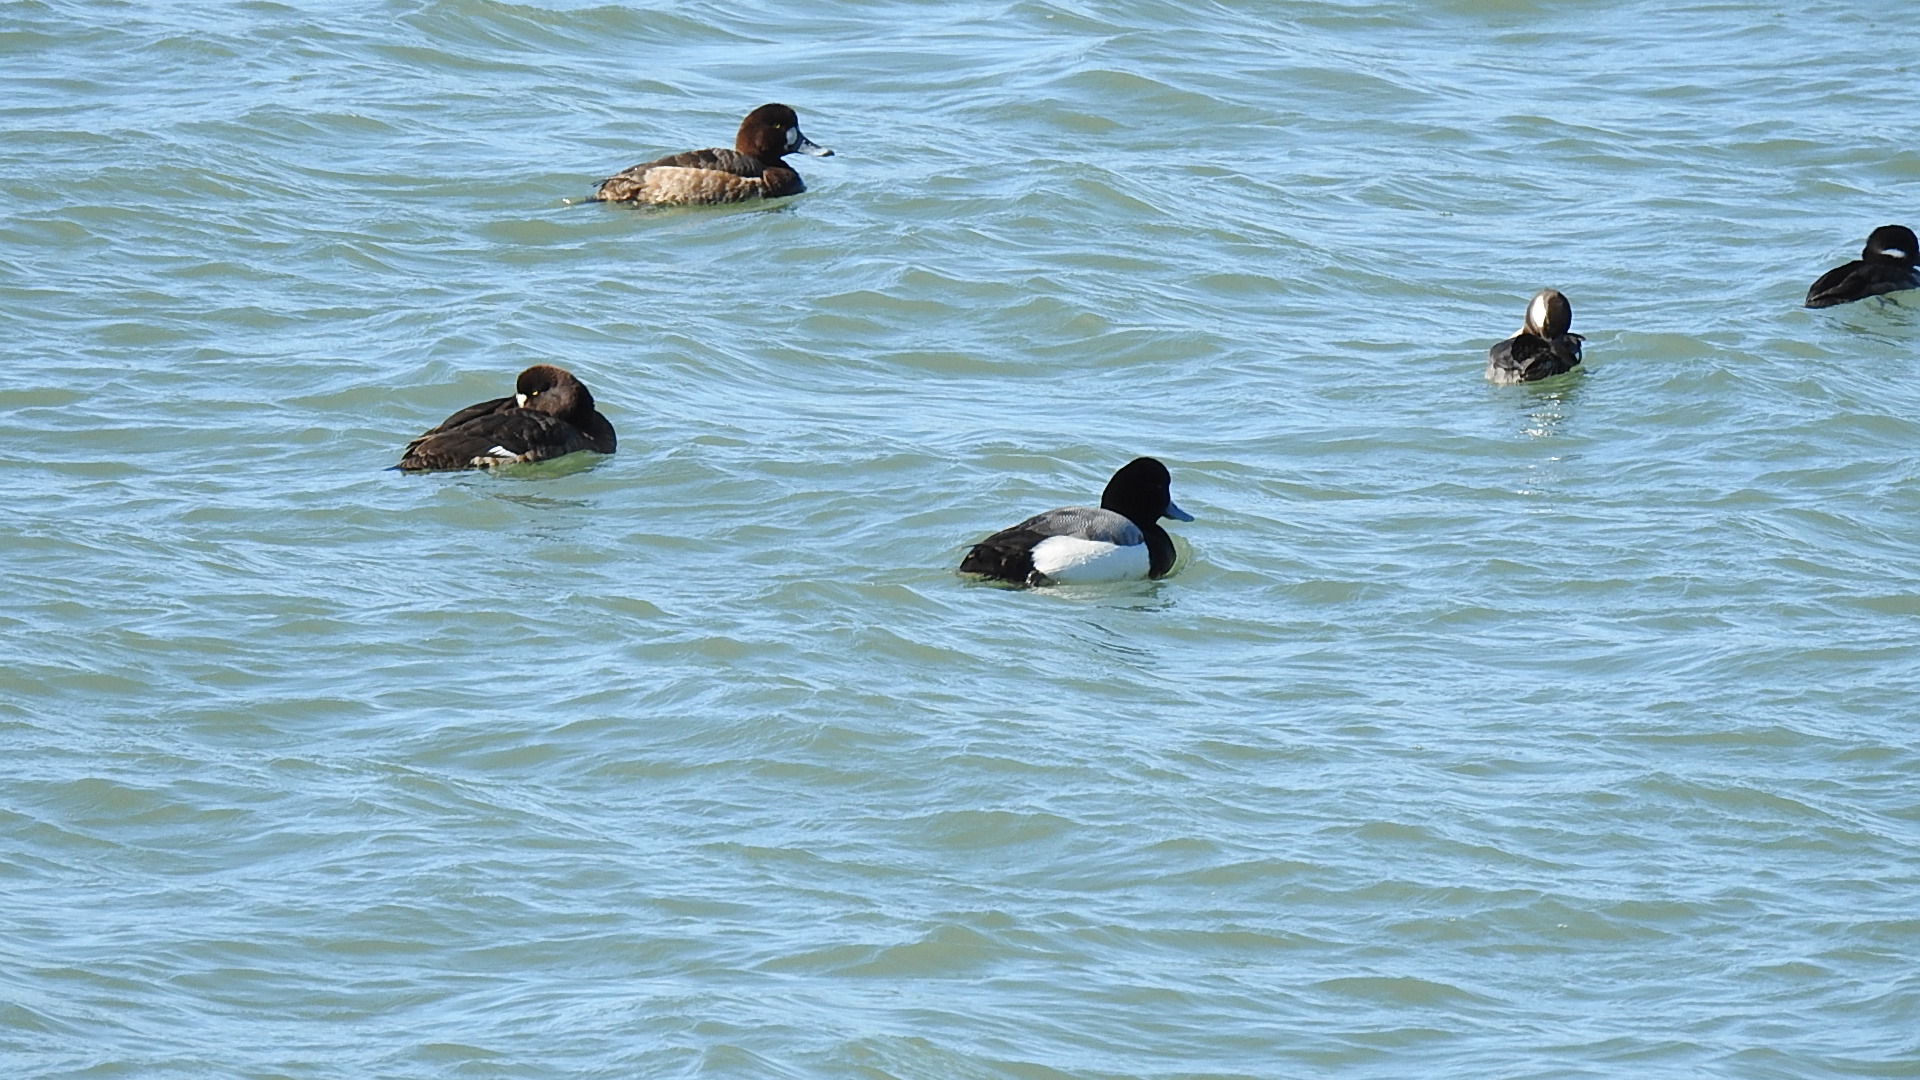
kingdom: Animalia
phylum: Chordata
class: Aves
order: Anseriformes
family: Anatidae
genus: Aythya
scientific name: Aythya marila
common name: Greater scaup
